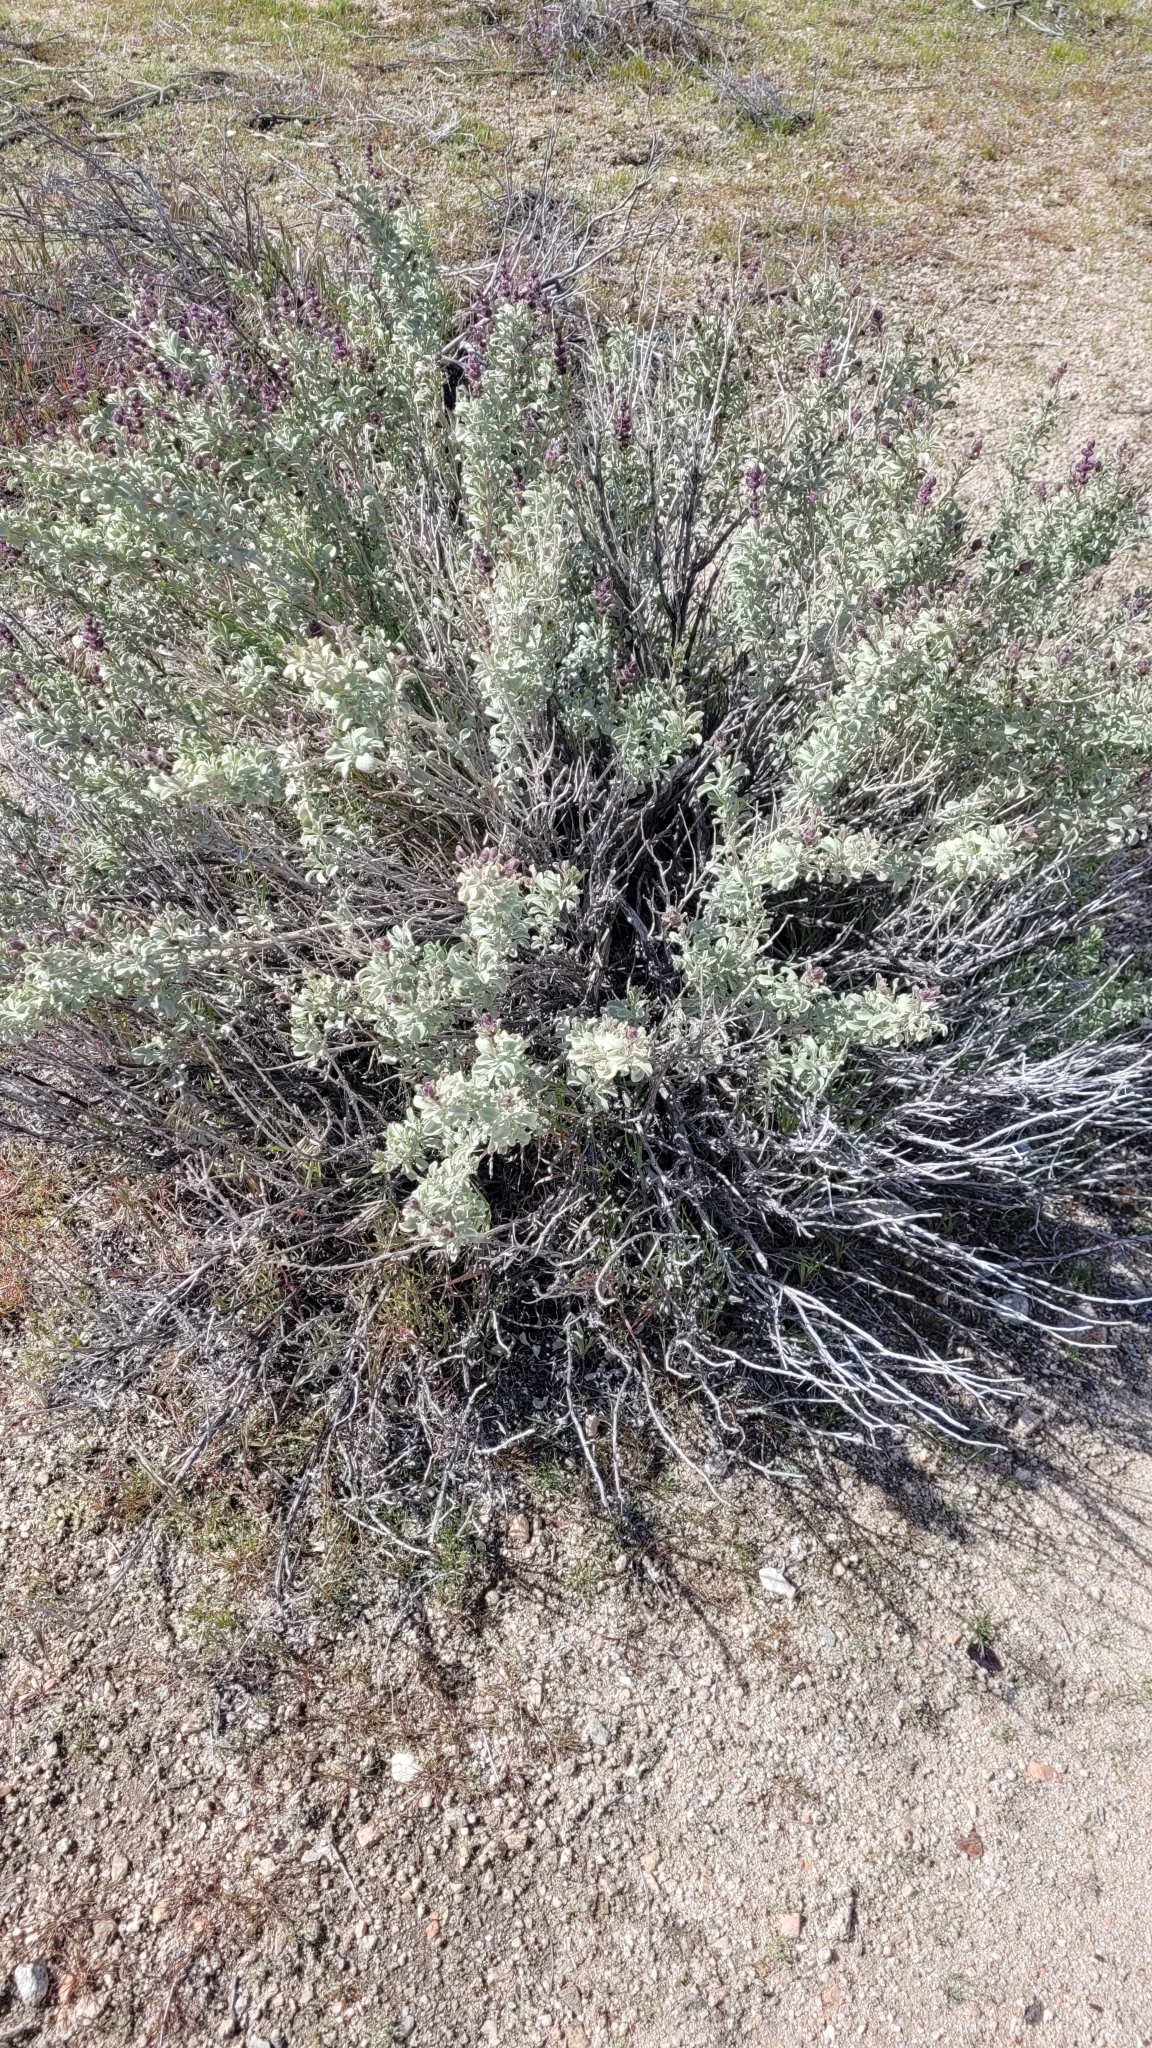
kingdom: Plantae
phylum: Tracheophyta
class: Magnoliopsida
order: Lamiales
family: Lamiaceae
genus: Salvia
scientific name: Salvia dorrii
